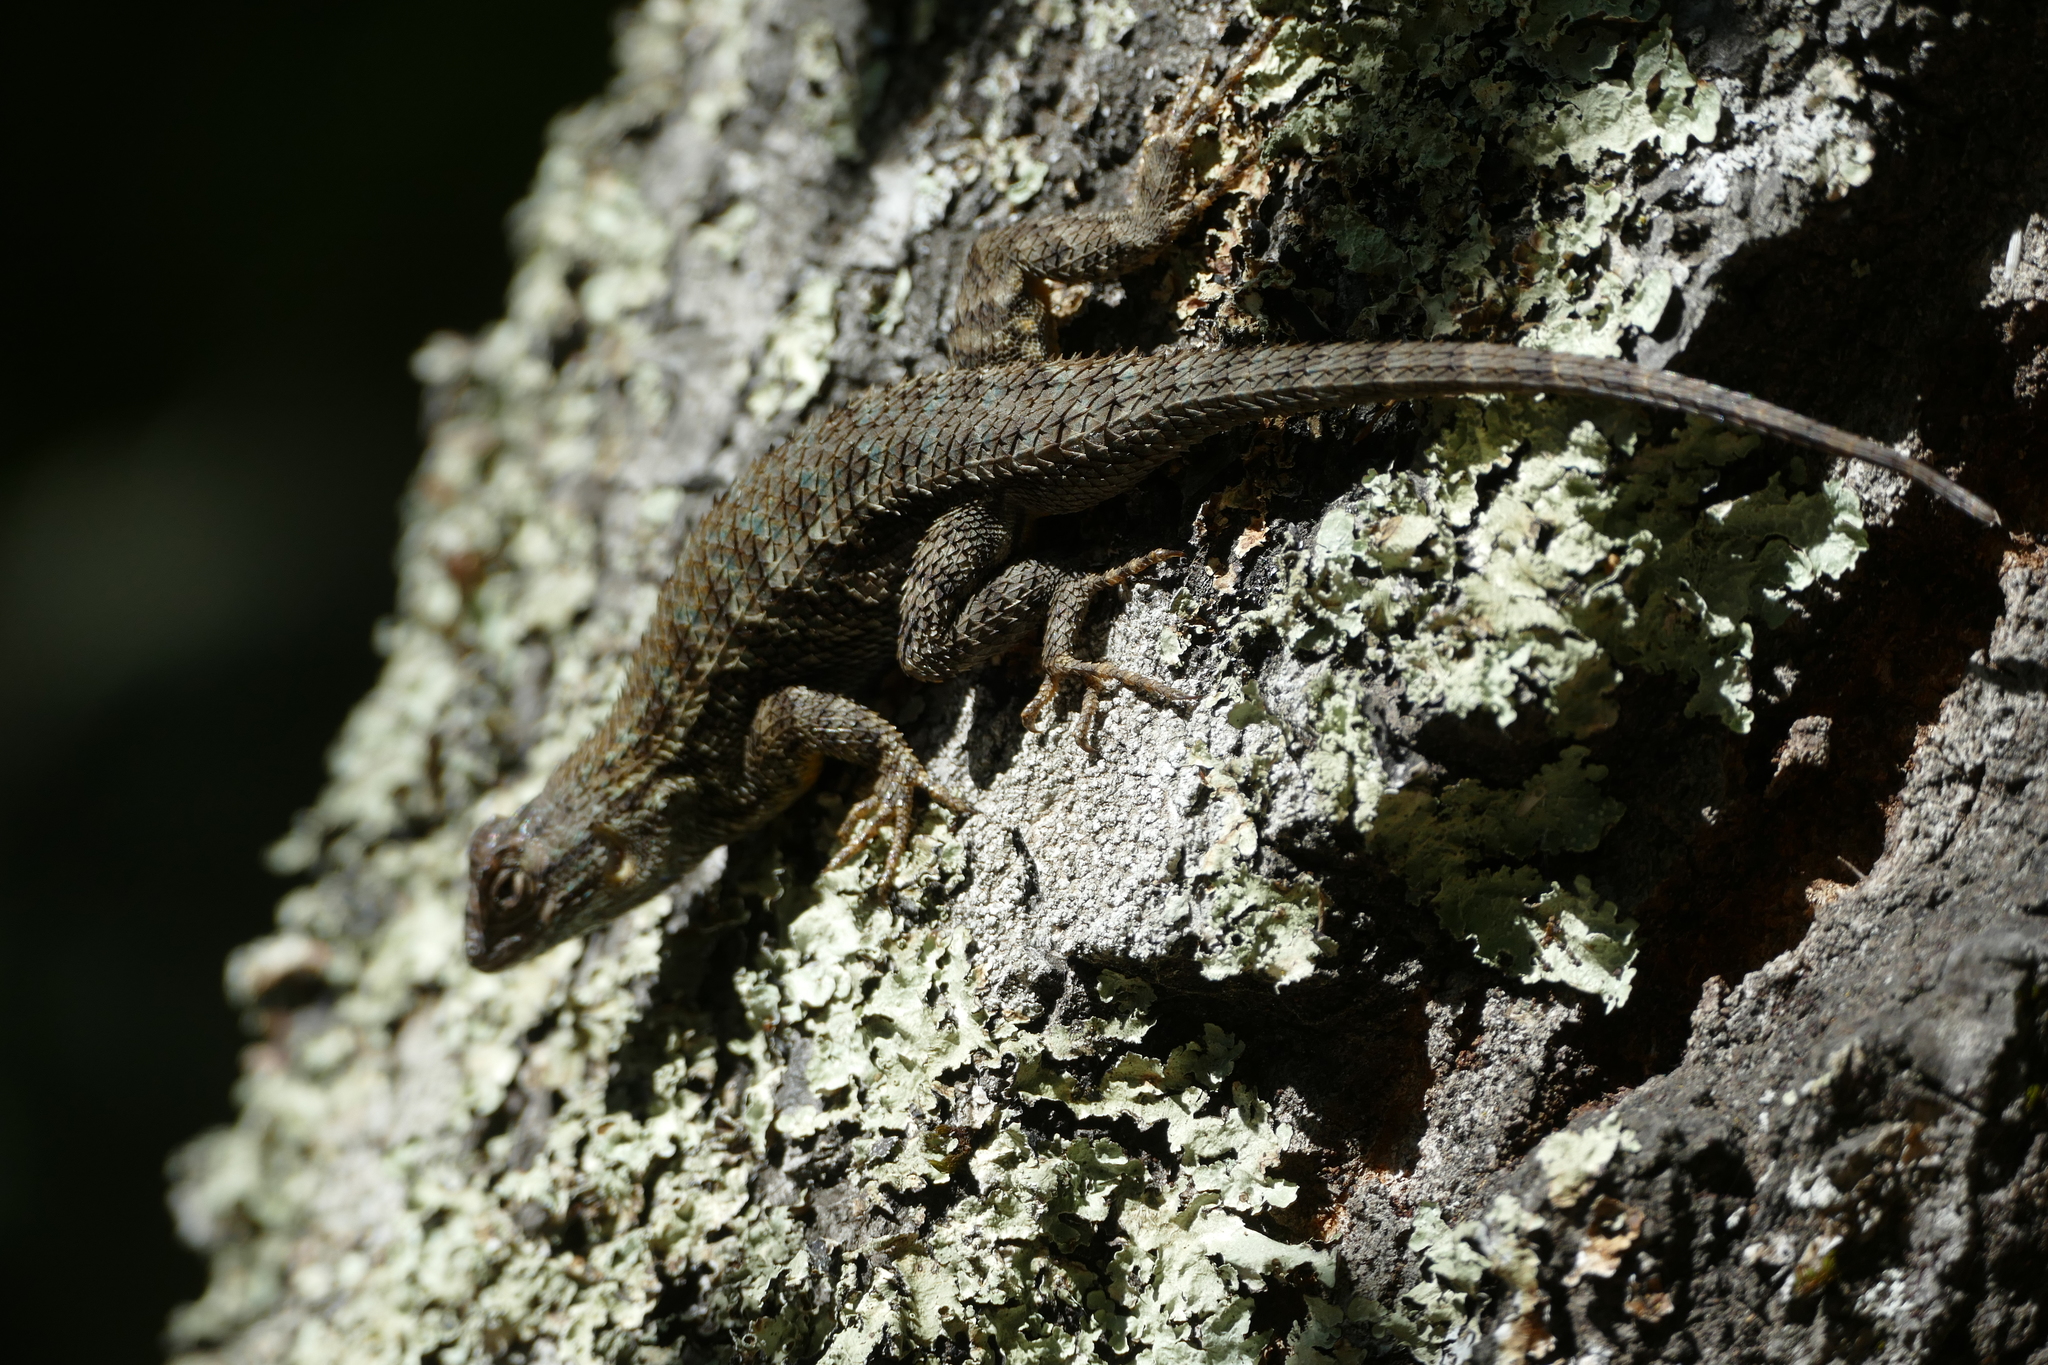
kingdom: Animalia
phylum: Chordata
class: Squamata
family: Phrynosomatidae
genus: Sceloporus
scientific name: Sceloporus occidentalis
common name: Western fence lizard
